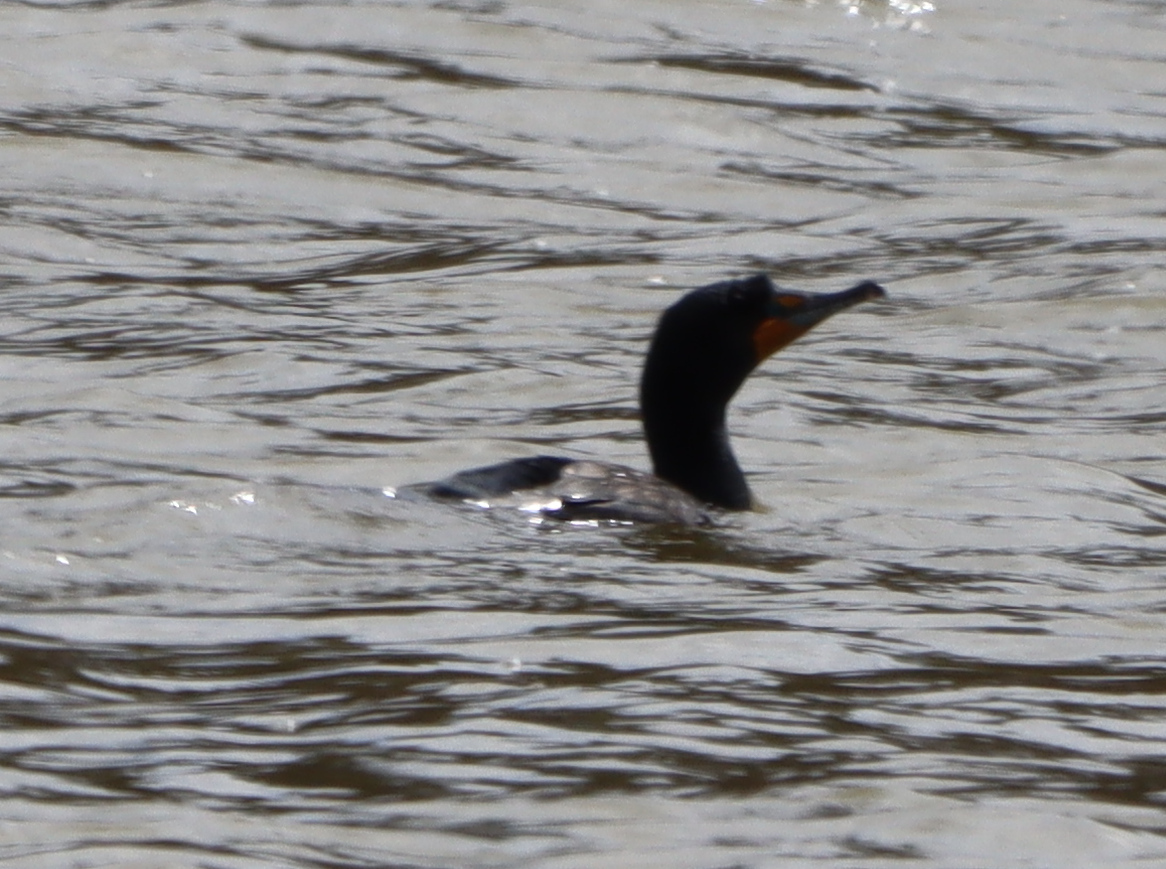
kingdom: Animalia
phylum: Chordata
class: Aves
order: Suliformes
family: Phalacrocoracidae
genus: Phalacrocorax
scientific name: Phalacrocorax auritus
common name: Double-crested cormorant
